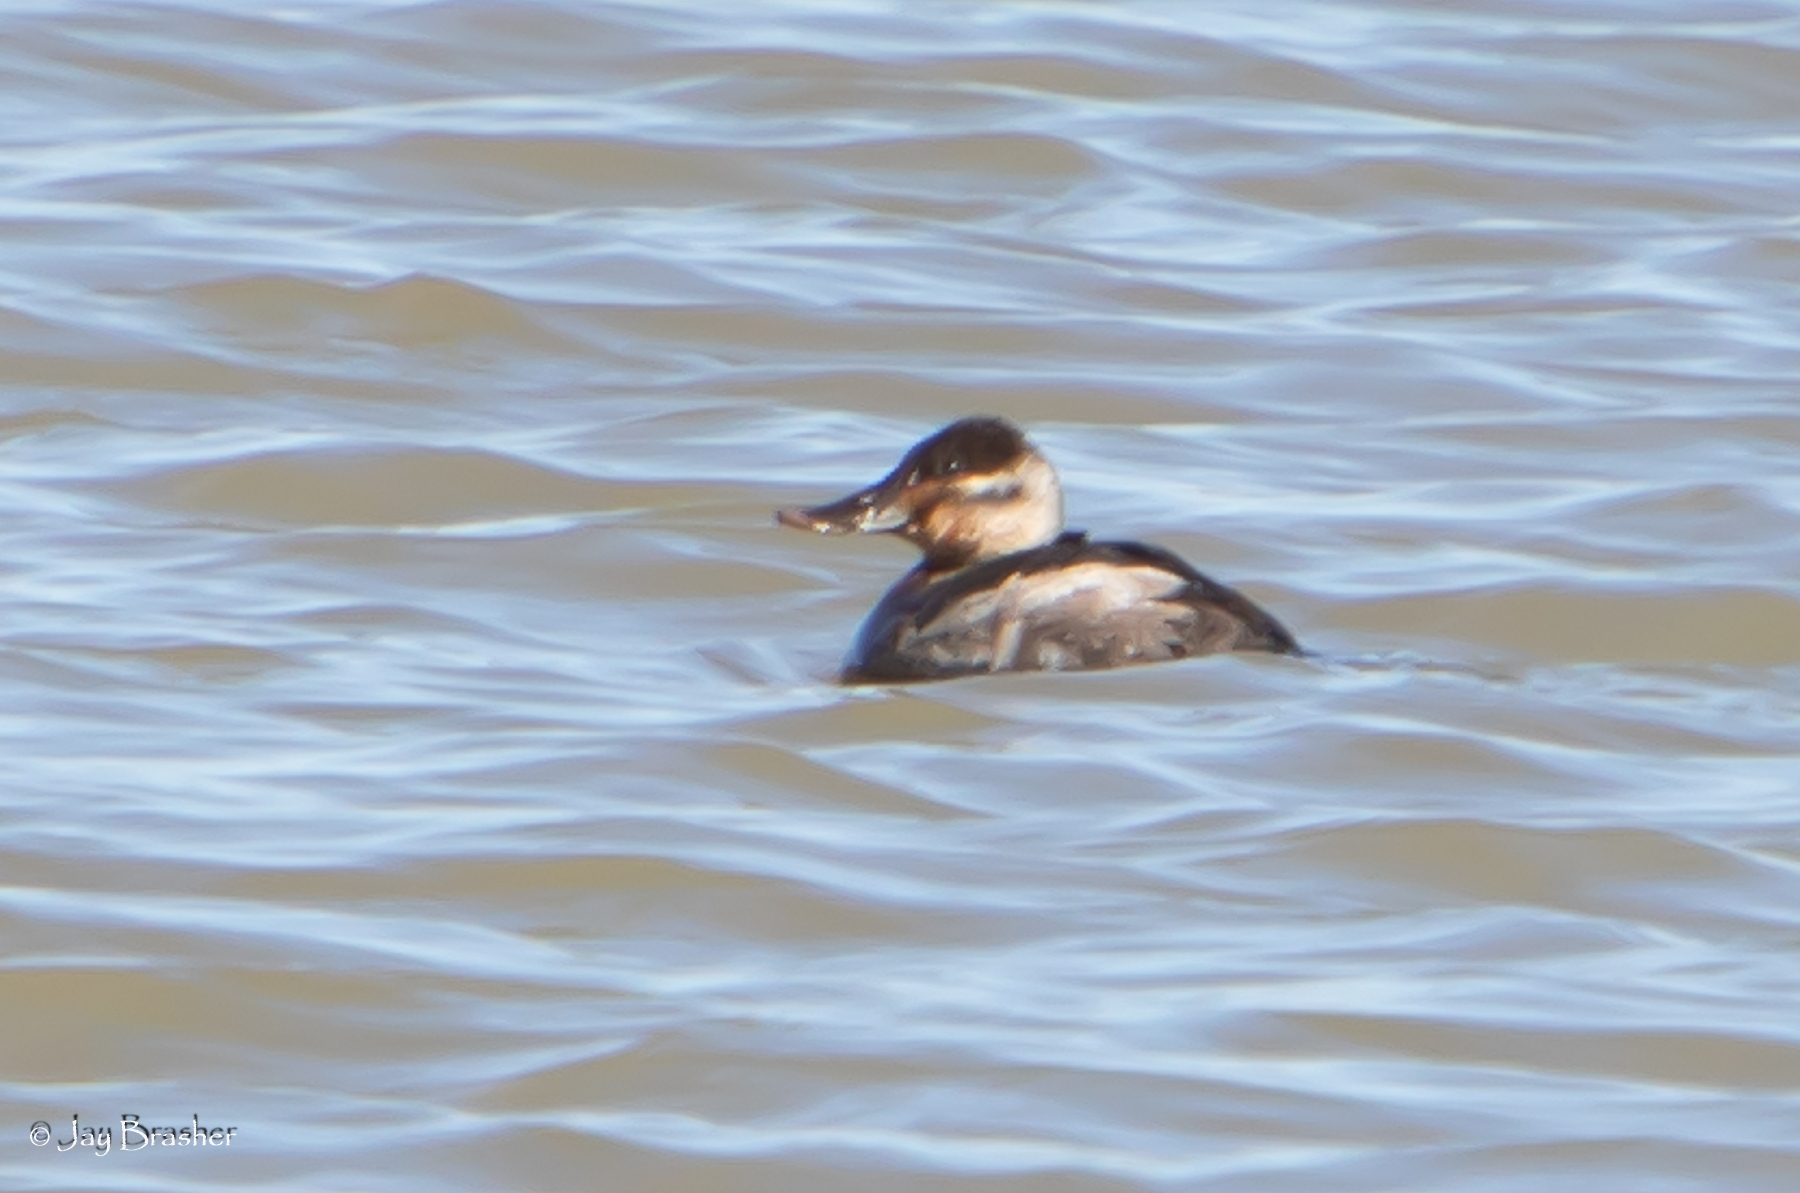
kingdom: Animalia
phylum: Chordata
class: Aves
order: Anseriformes
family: Anatidae
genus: Oxyura
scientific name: Oxyura jamaicensis
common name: Ruddy duck
